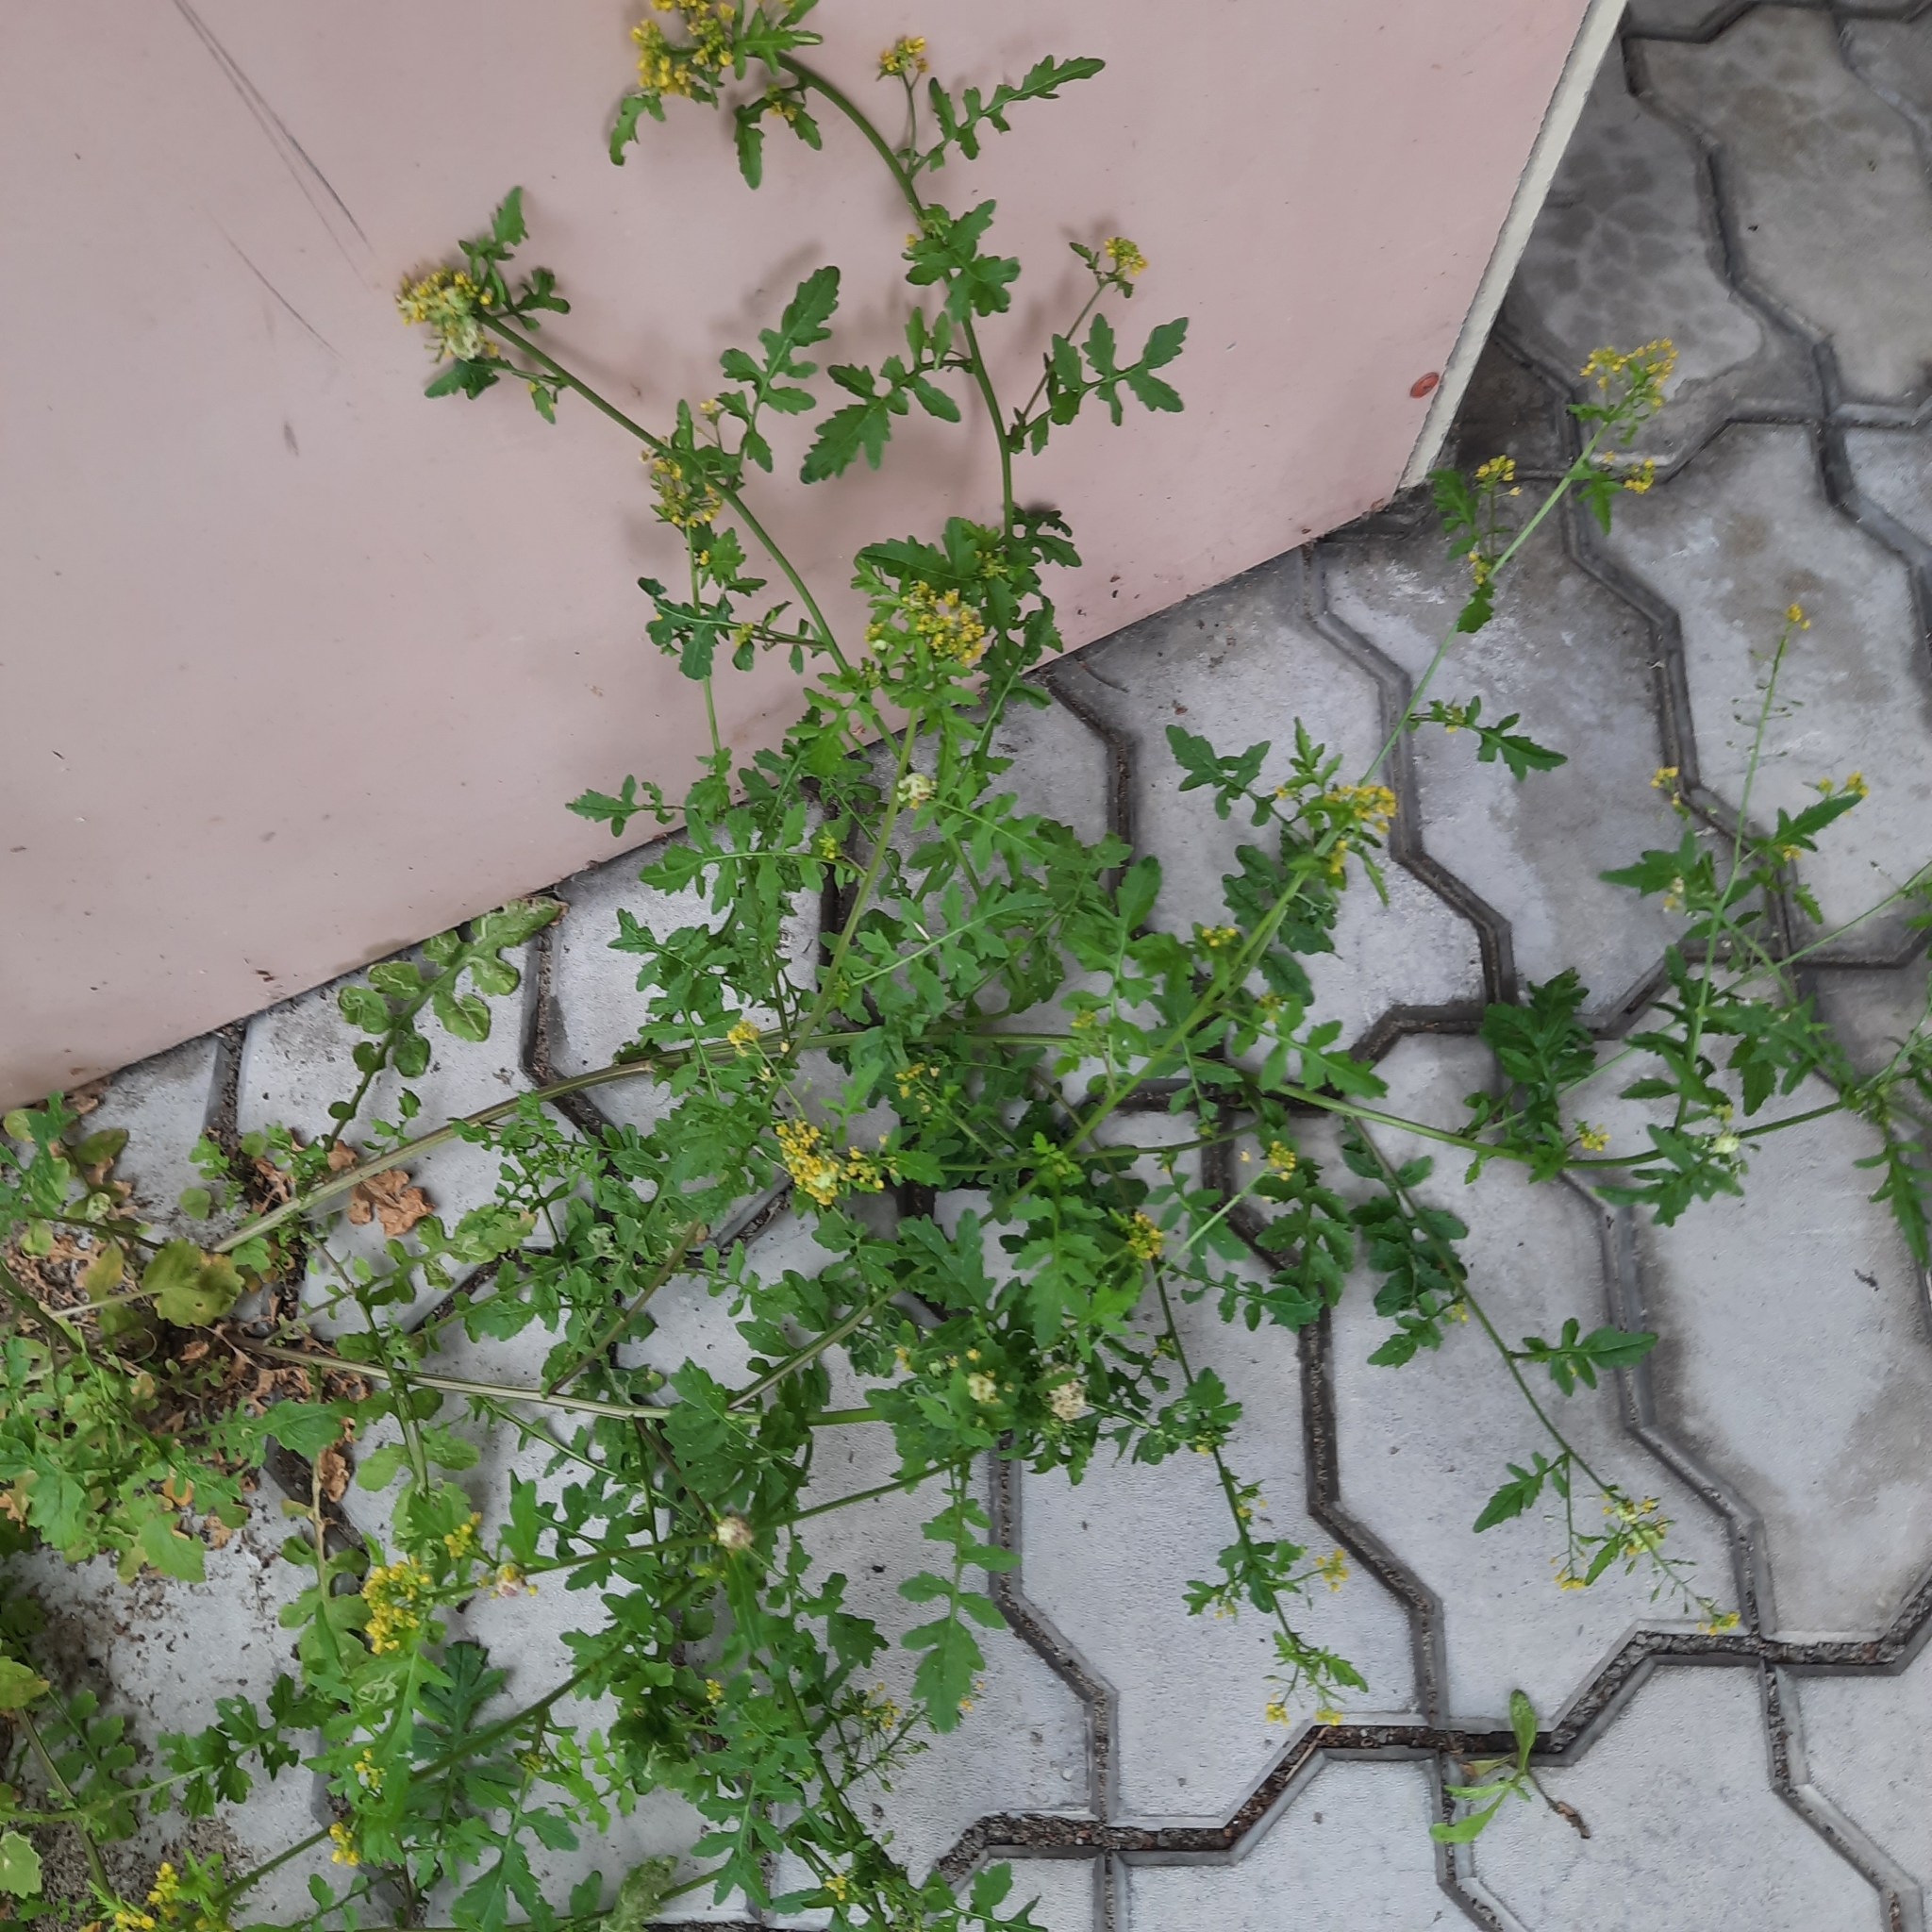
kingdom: Plantae
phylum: Tracheophyta
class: Magnoliopsida
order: Brassicales
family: Brassicaceae
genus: Rorippa
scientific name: Rorippa palustris
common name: Marsh yellow-cress
